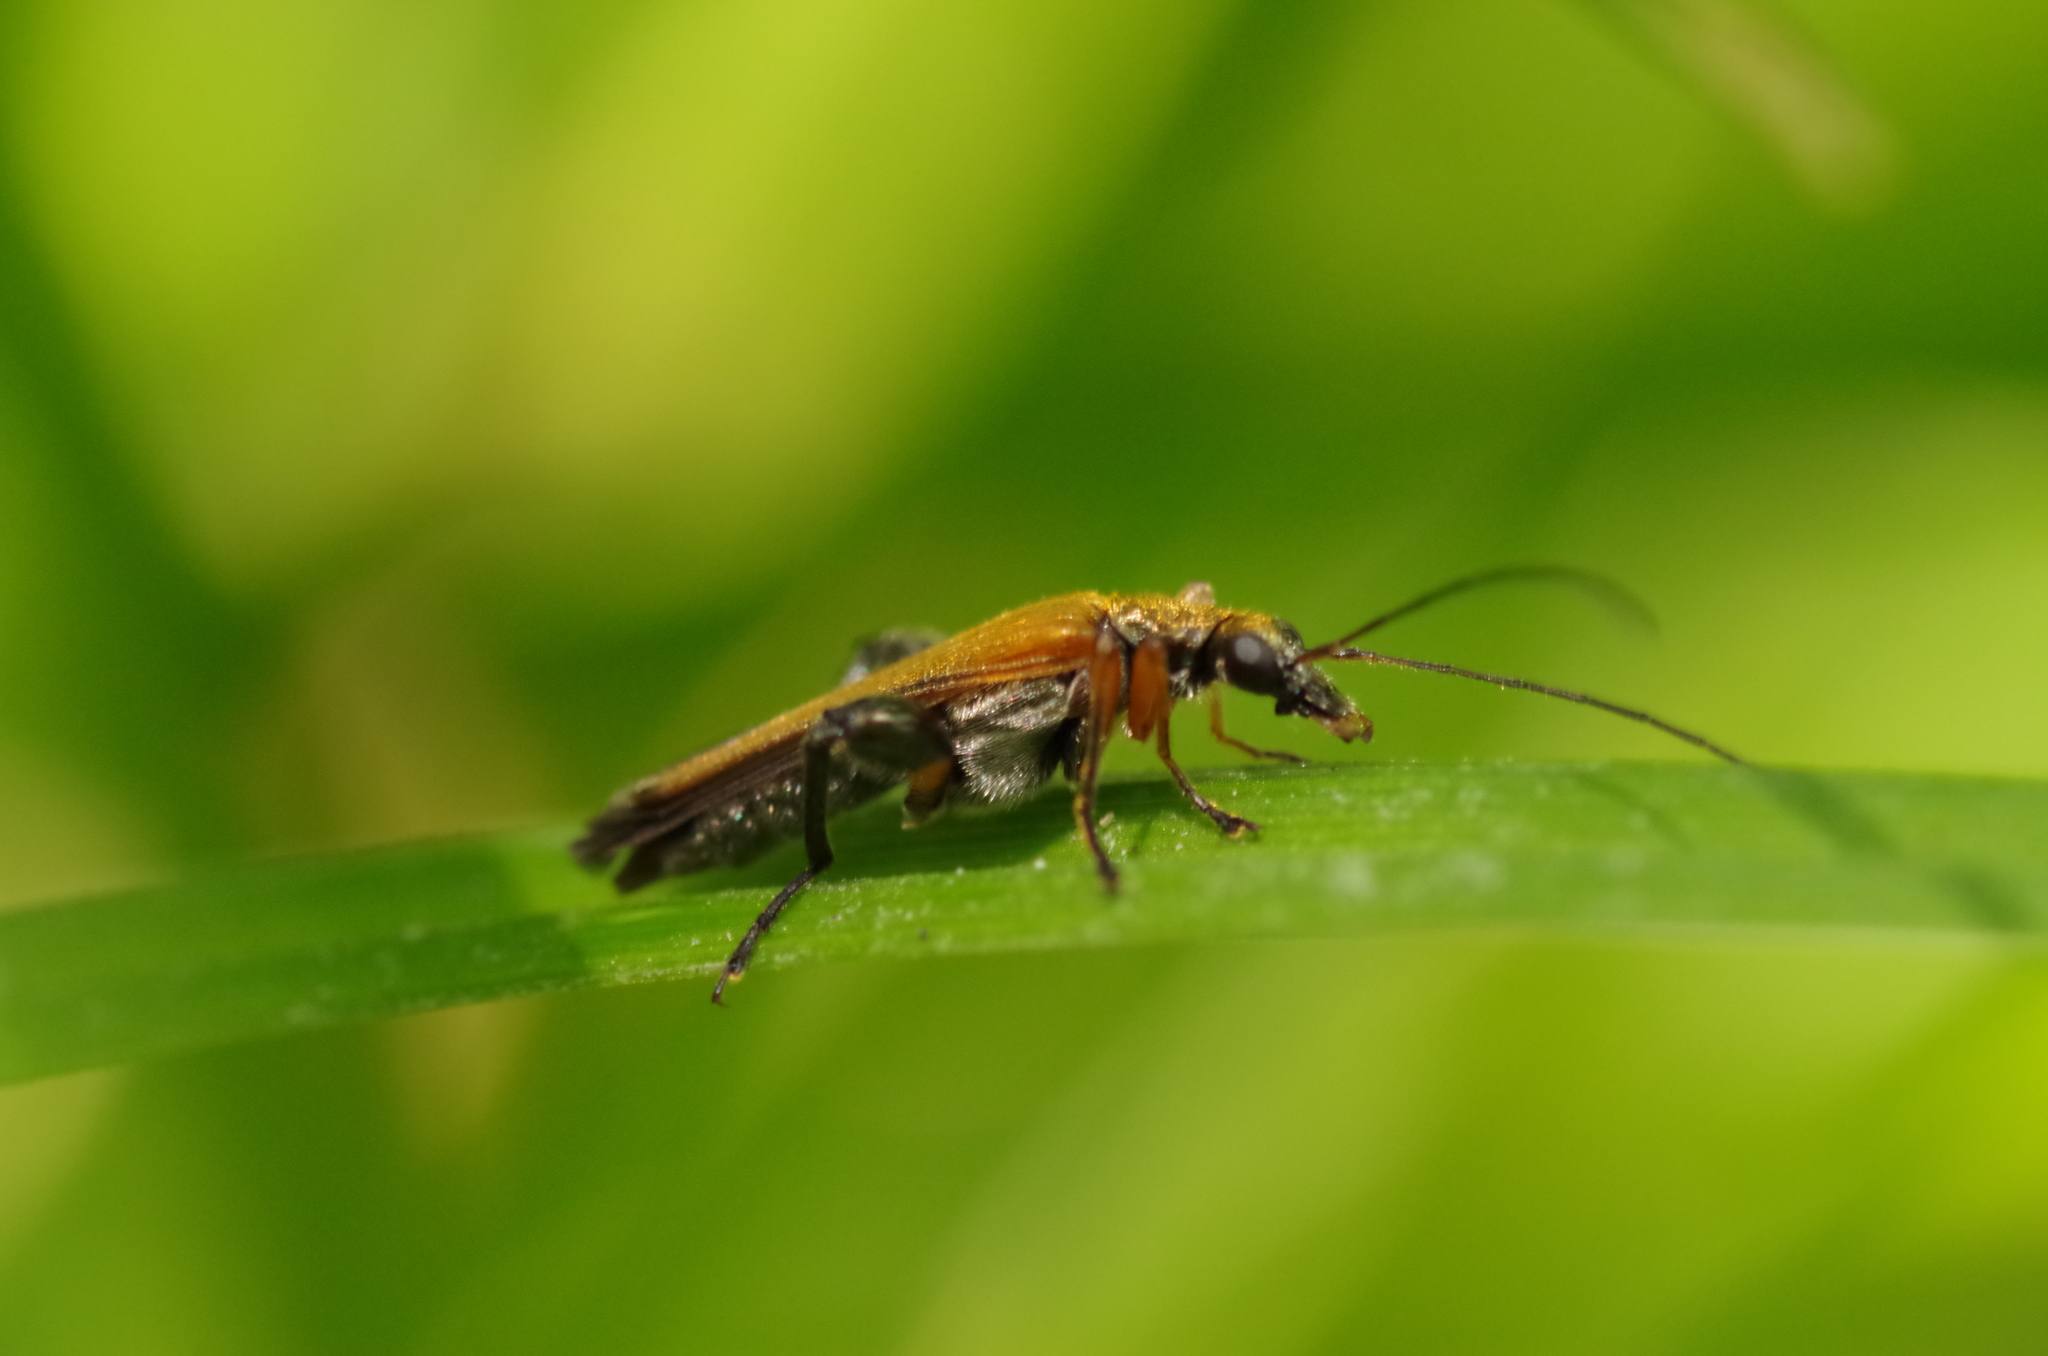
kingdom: Animalia
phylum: Arthropoda
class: Insecta
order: Coleoptera
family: Oedemeridae
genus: Oedemera
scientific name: Oedemera podagrariae
